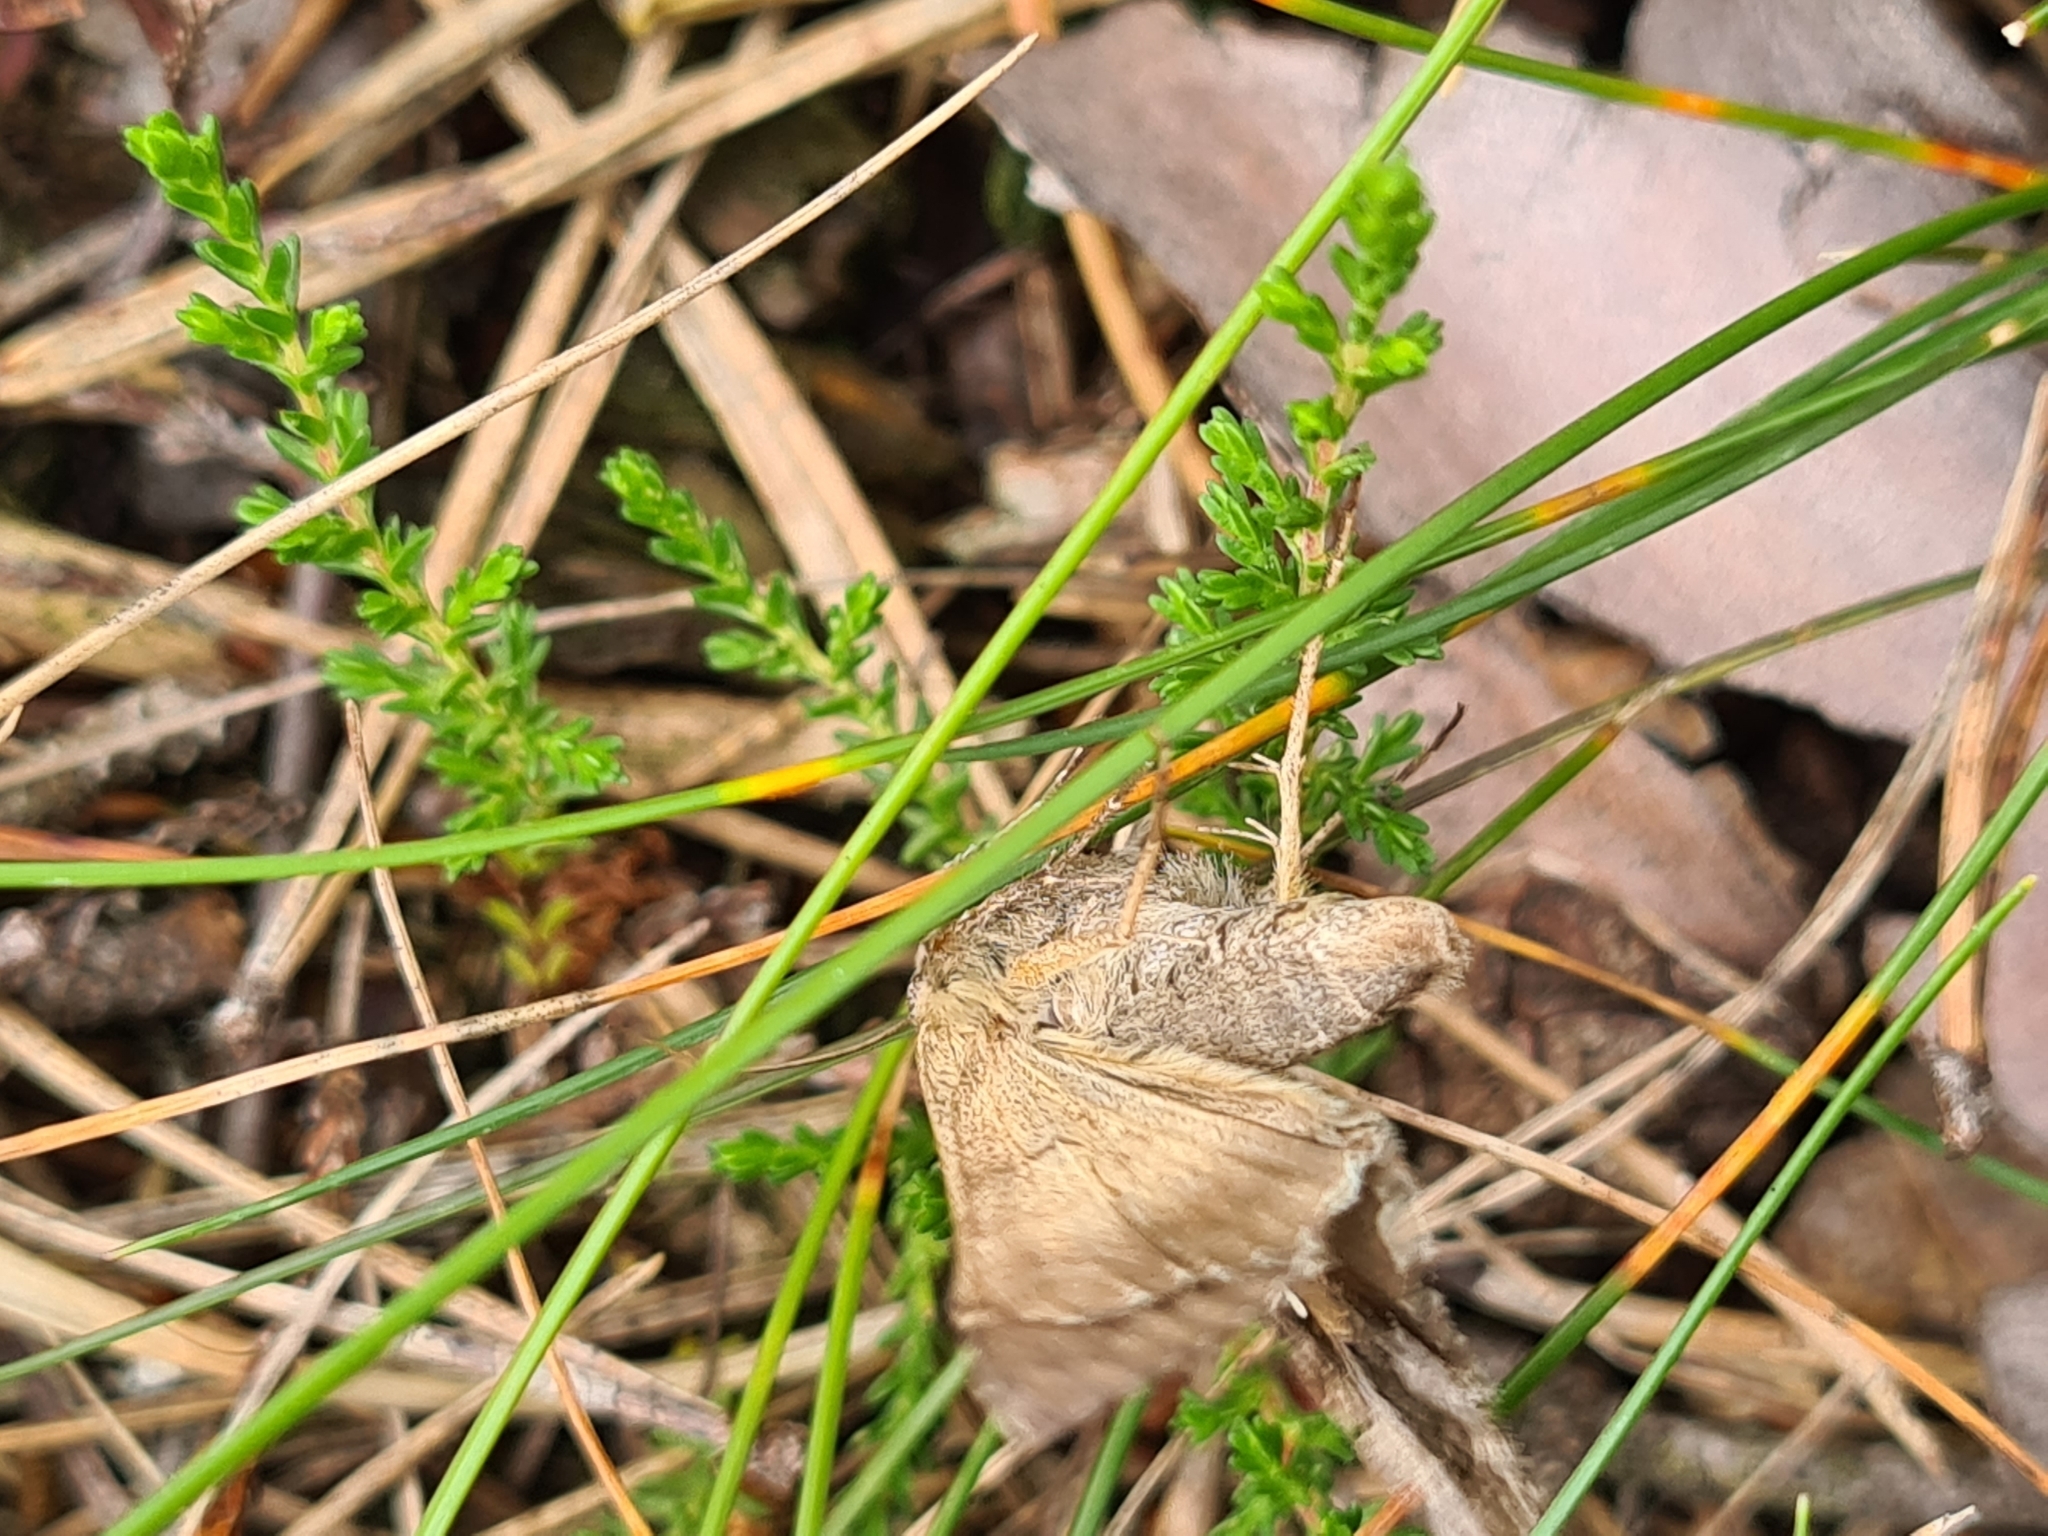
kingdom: Animalia
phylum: Arthropoda
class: Insecta
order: Lepidoptera
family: Noctuidae
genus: Autographa
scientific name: Autographa gamma
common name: Silver y
